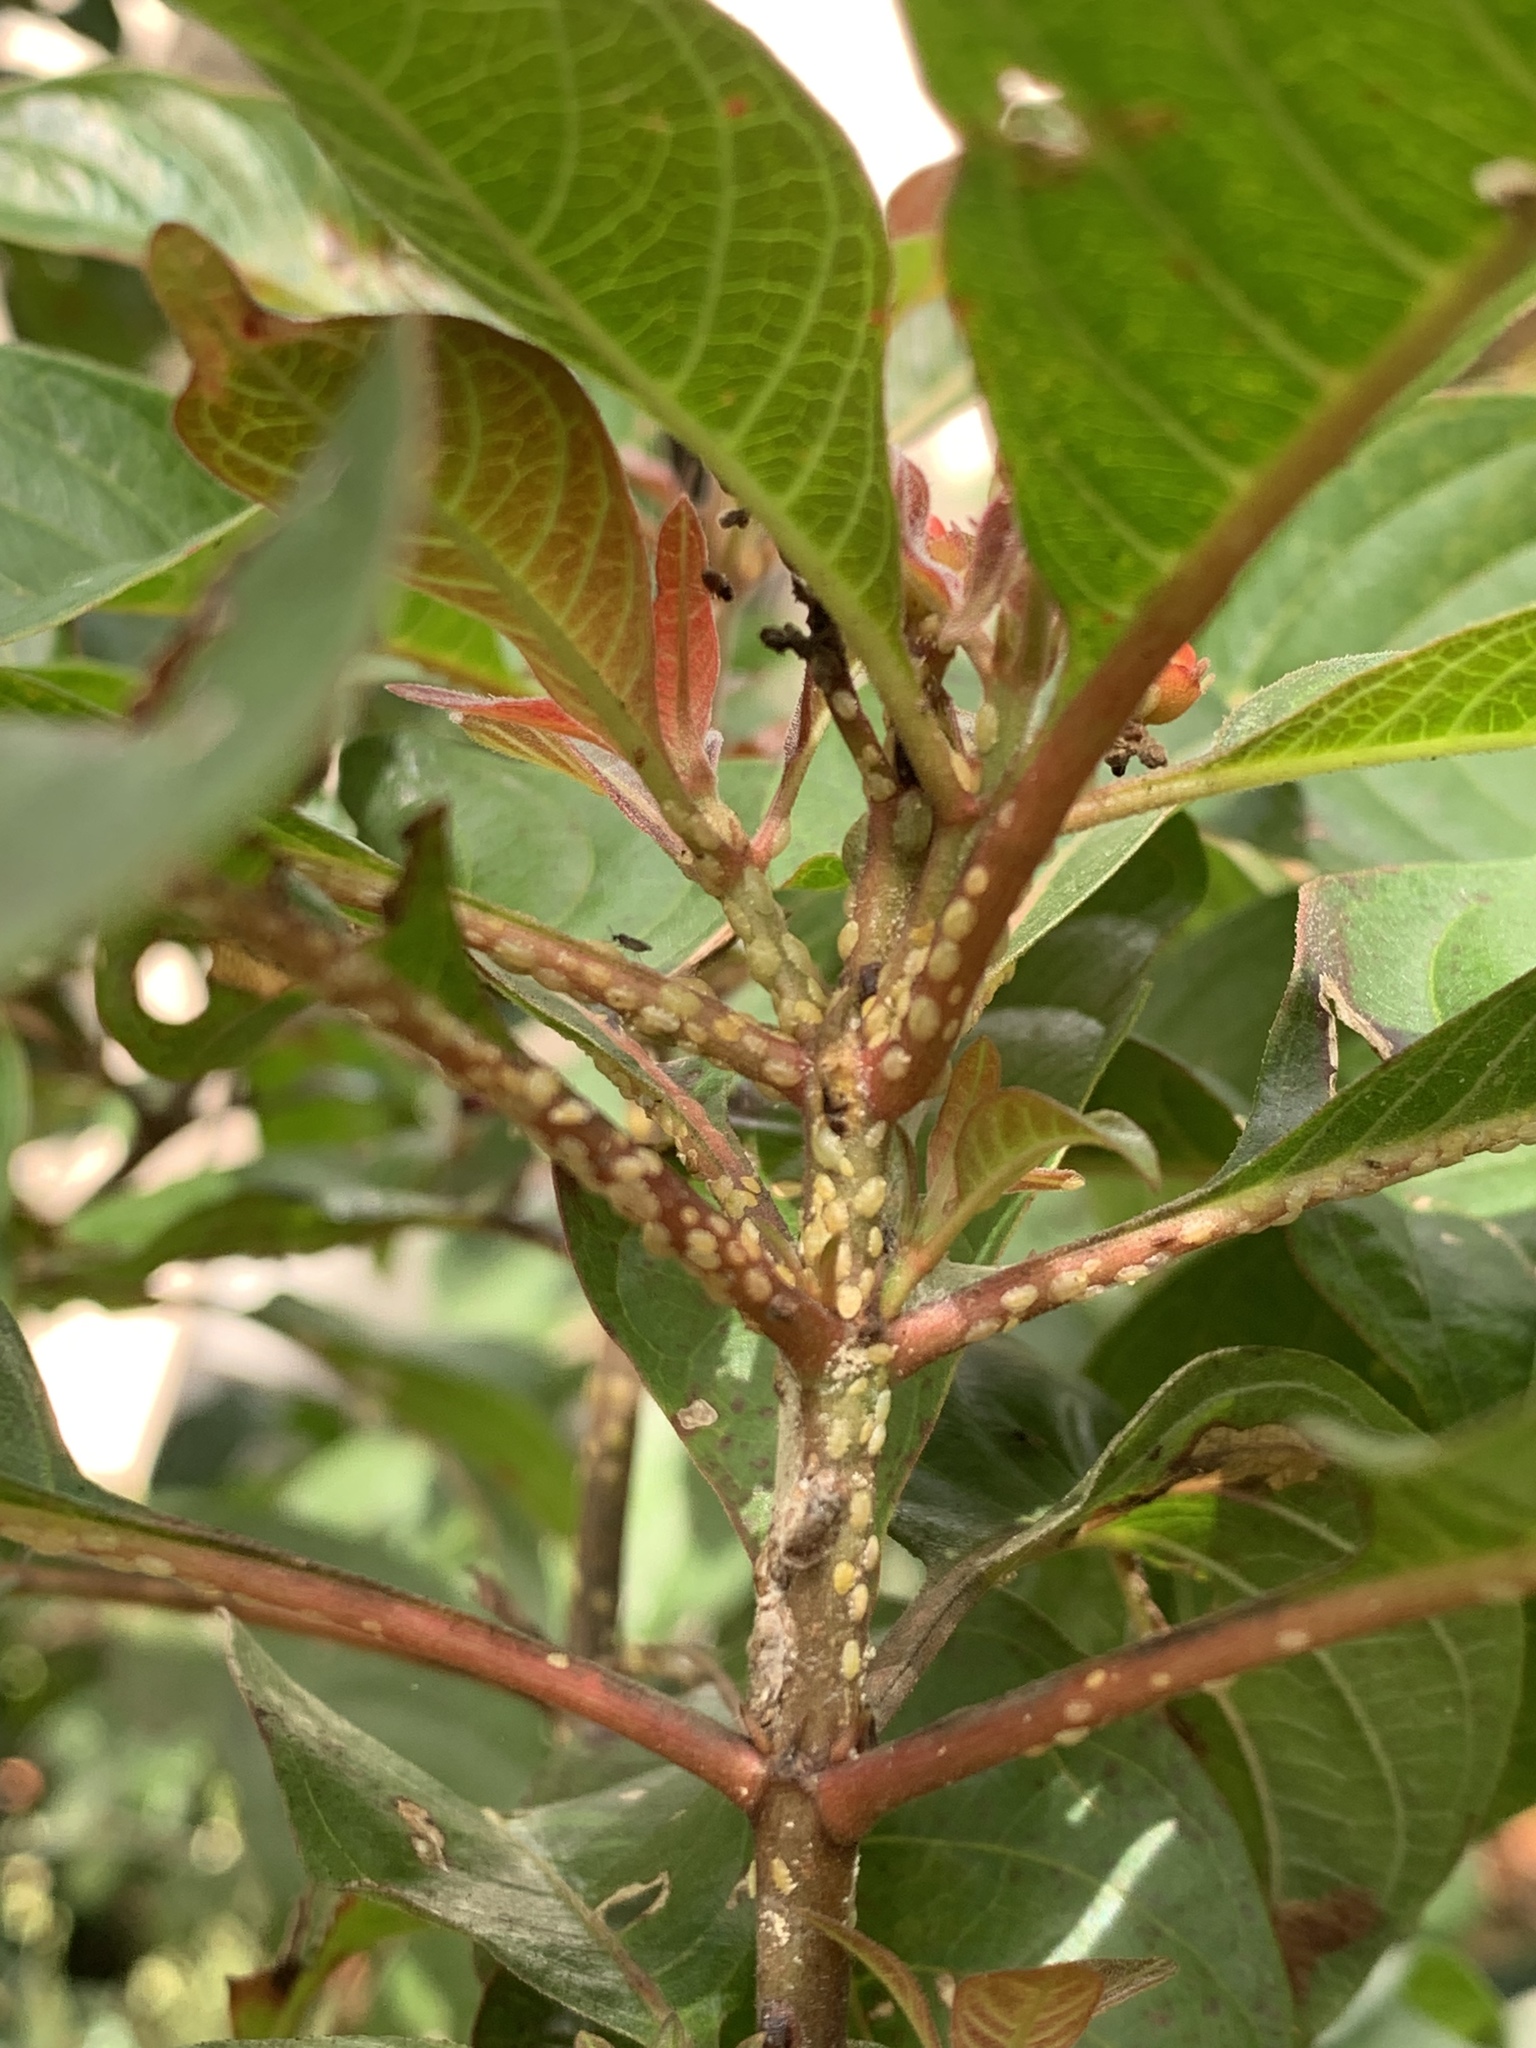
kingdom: Animalia
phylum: Arthropoda
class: Insecta
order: Hemiptera
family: Coccidae
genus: Phalacrococcus
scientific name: Phalacrococcus howertoni
